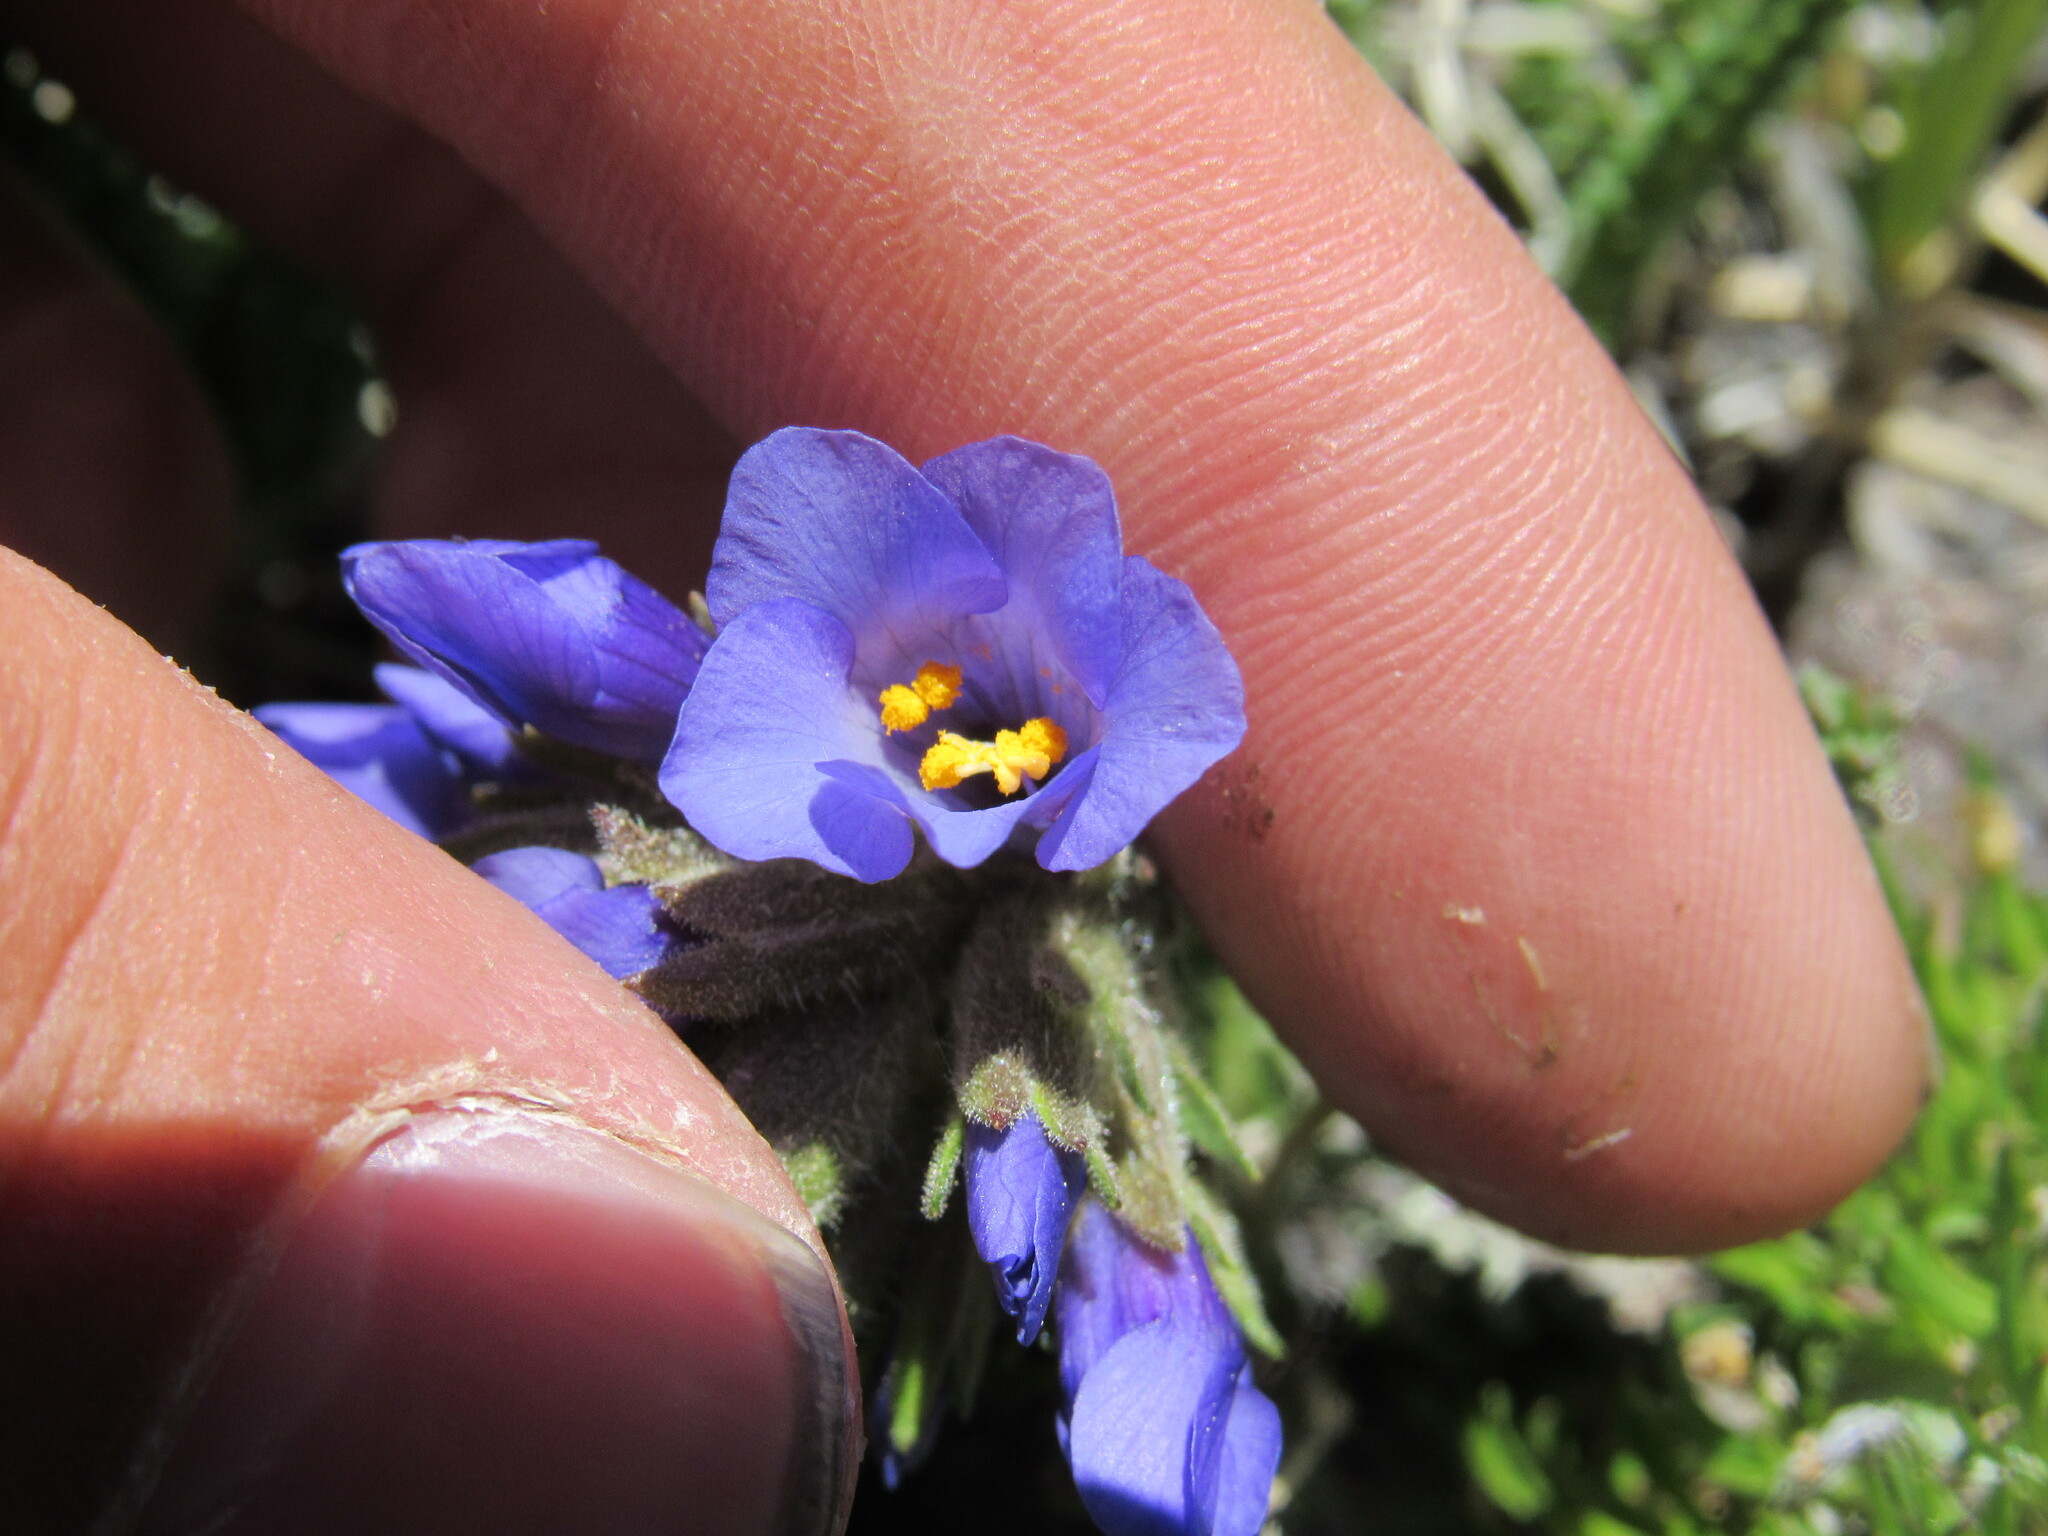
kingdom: Plantae
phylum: Tracheophyta
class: Magnoliopsida
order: Ericales
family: Polemoniaceae
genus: Polemonium
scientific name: Polemonium viscosum
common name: Skunk jacob's-ladder
